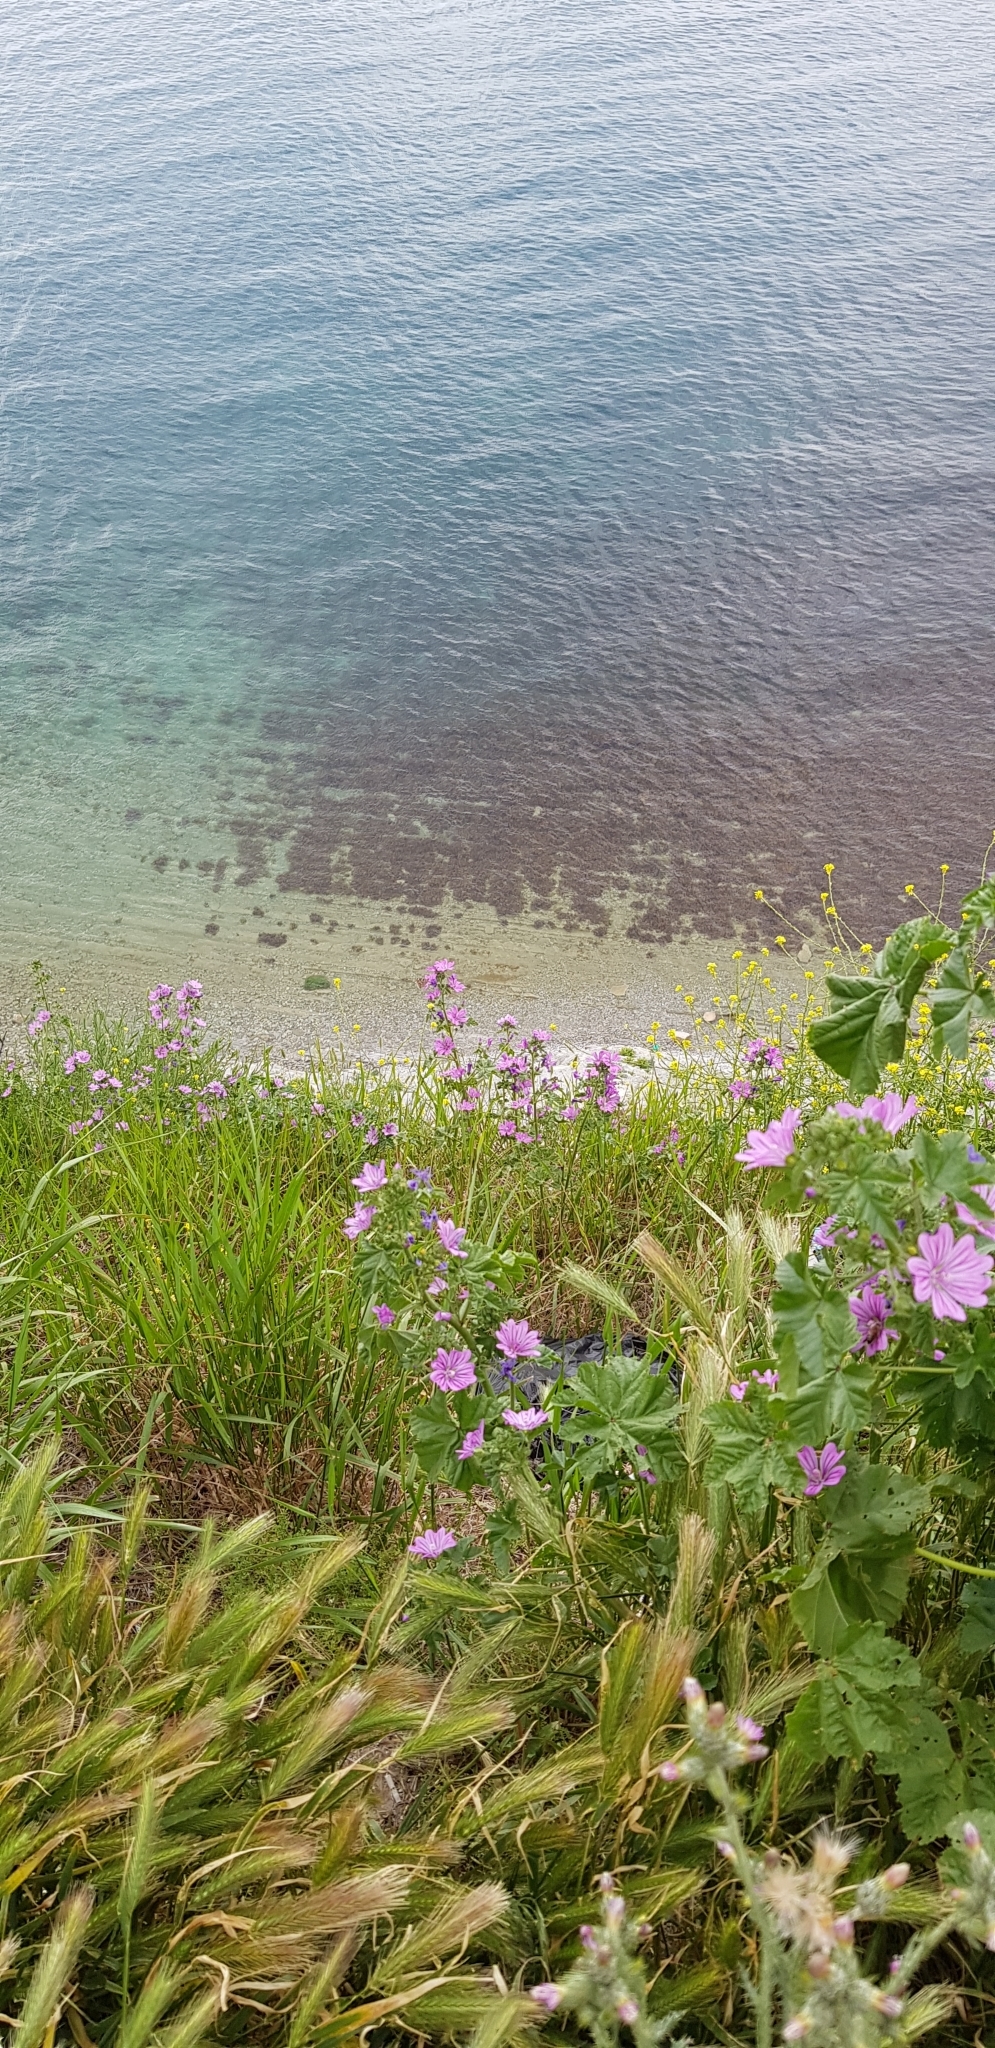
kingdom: Plantae
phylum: Tracheophyta
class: Magnoliopsida
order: Malvales
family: Malvaceae
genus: Malva
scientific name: Malva sylvestris
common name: Common mallow
